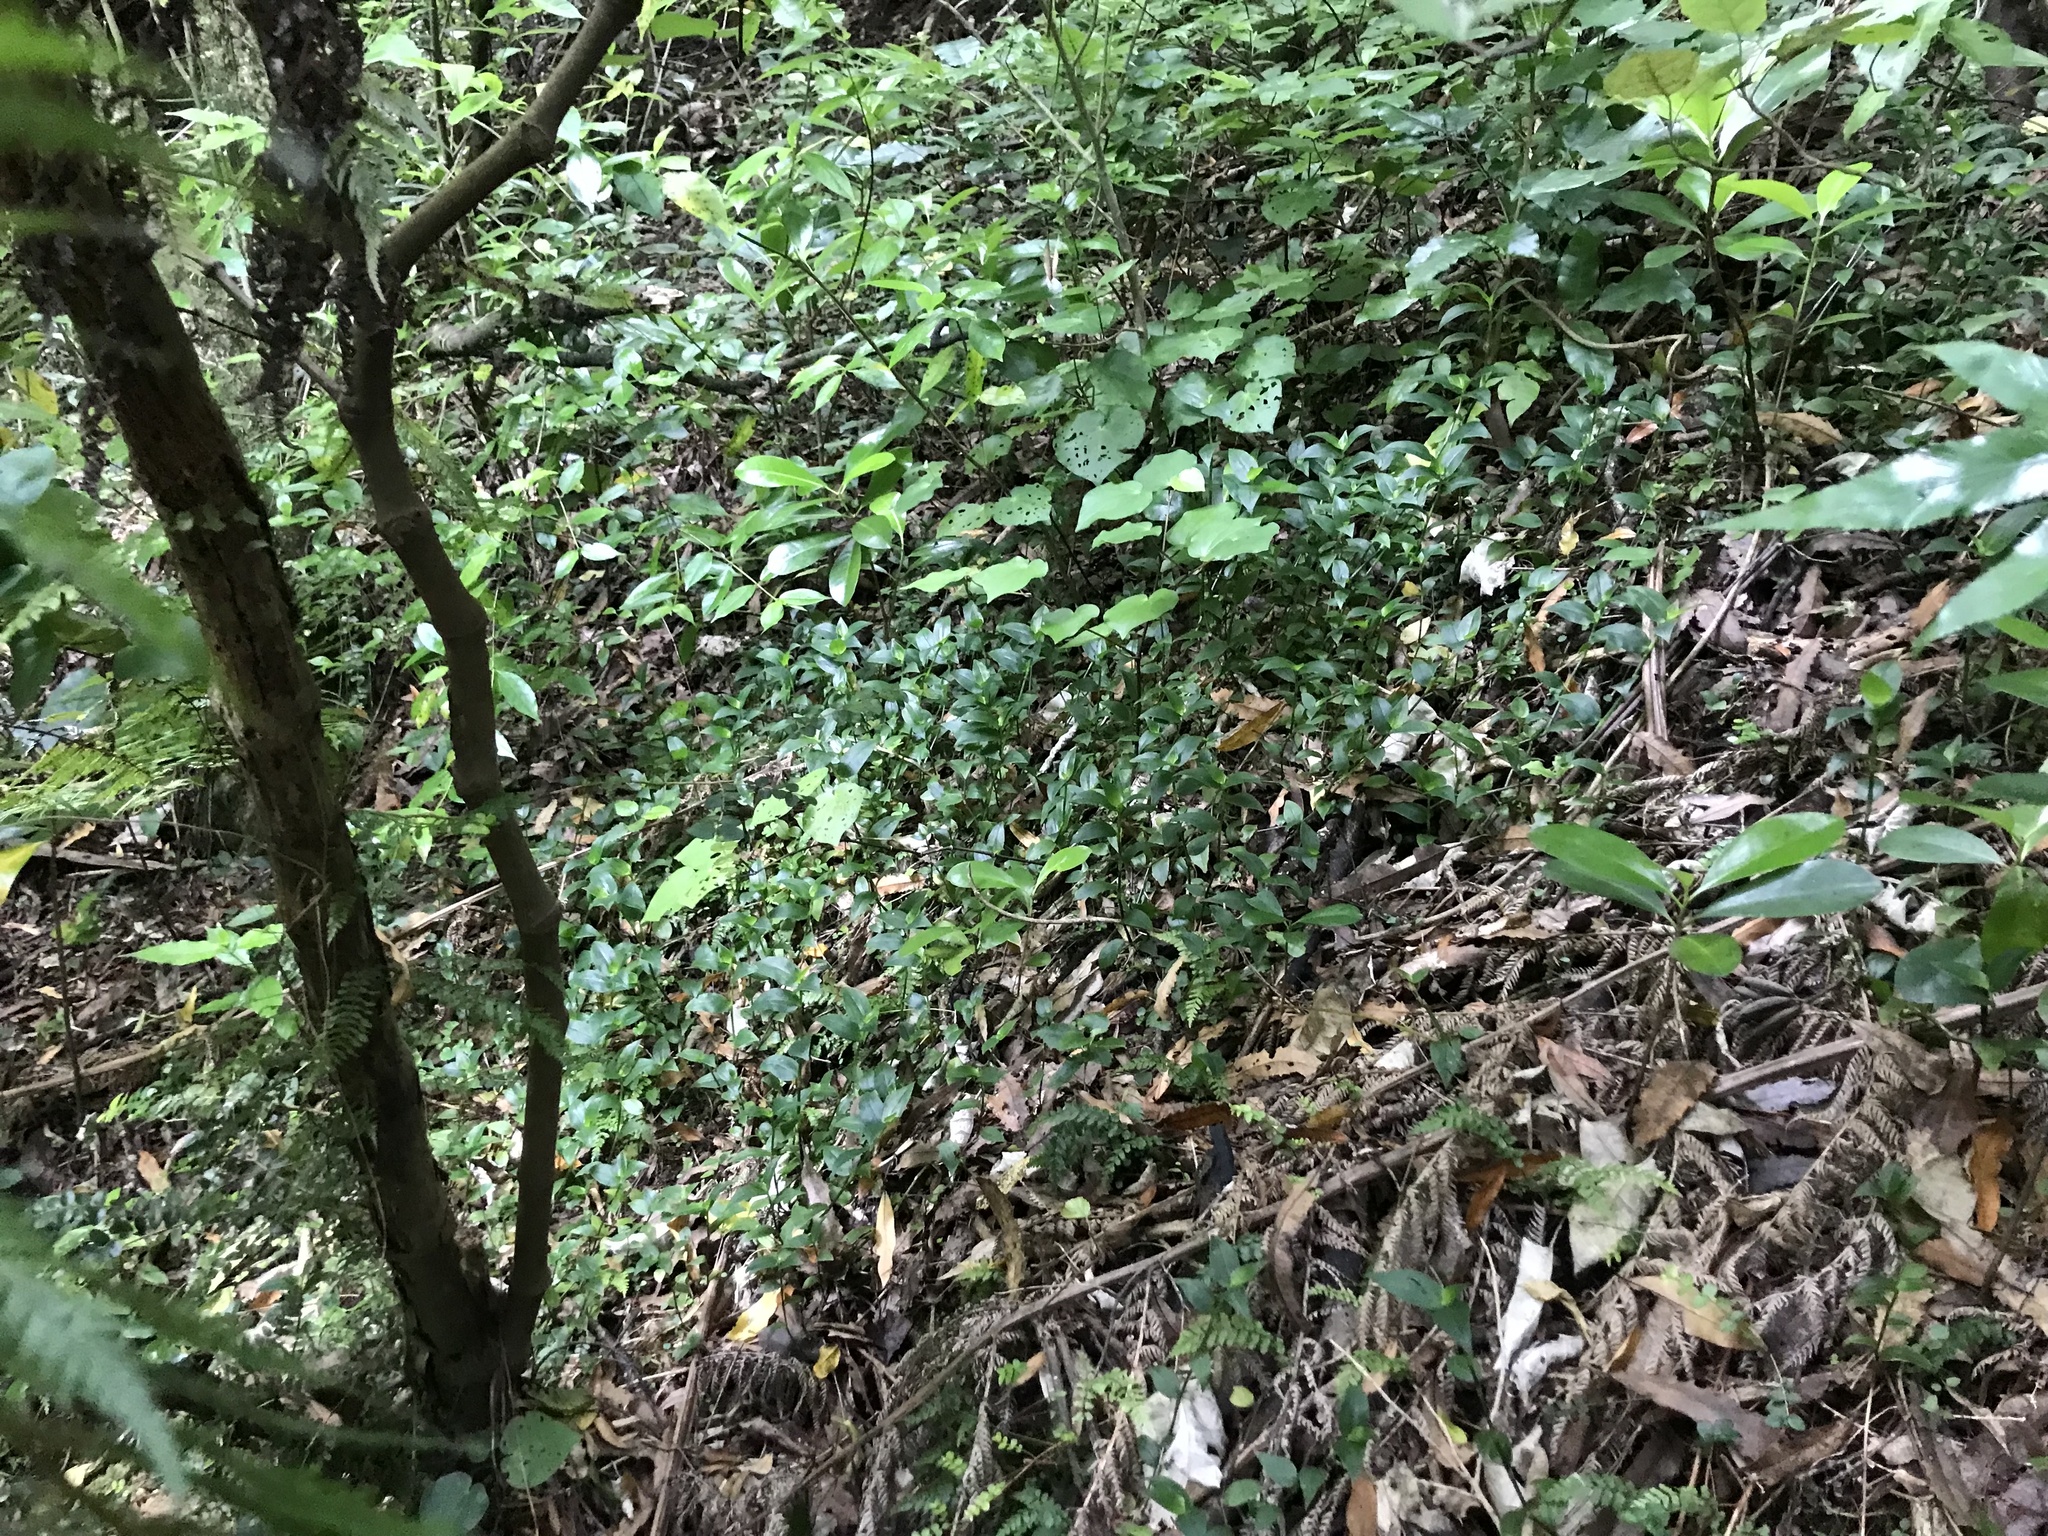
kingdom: Plantae
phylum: Tracheophyta
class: Liliopsida
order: Commelinales
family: Commelinaceae
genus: Tradescantia
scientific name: Tradescantia fluminensis
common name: Wandering-jew
